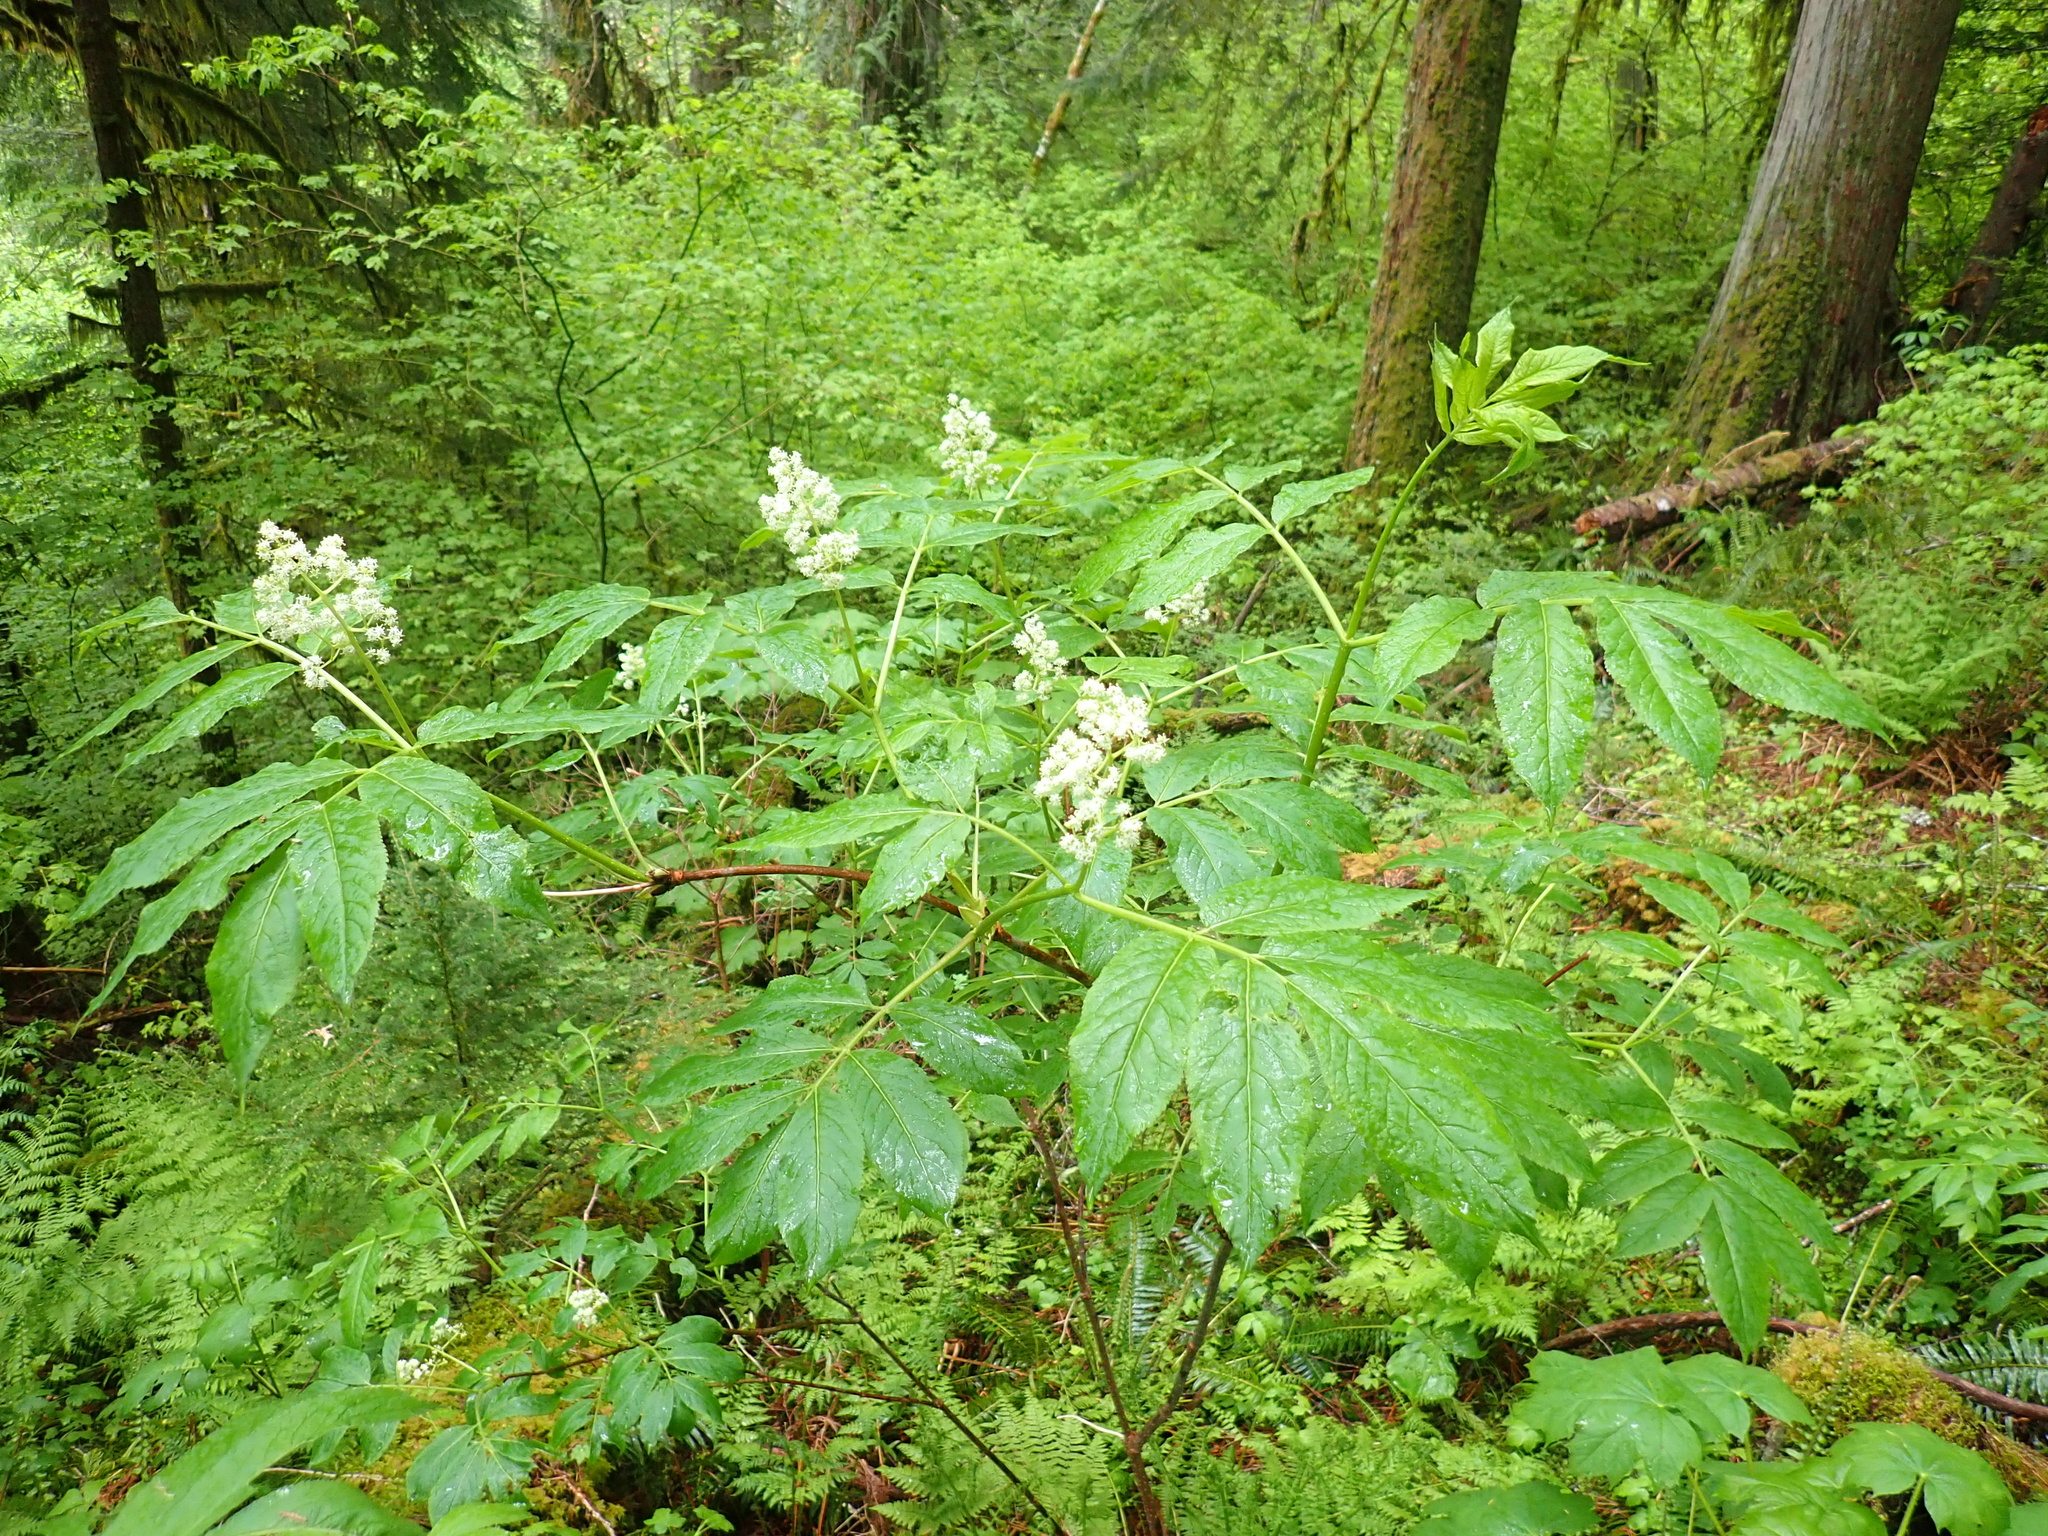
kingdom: Plantae
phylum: Tracheophyta
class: Magnoliopsida
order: Dipsacales
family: Viburnaceae
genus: Sambucus
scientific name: Sambucus racemosa
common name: Red-berried elder
